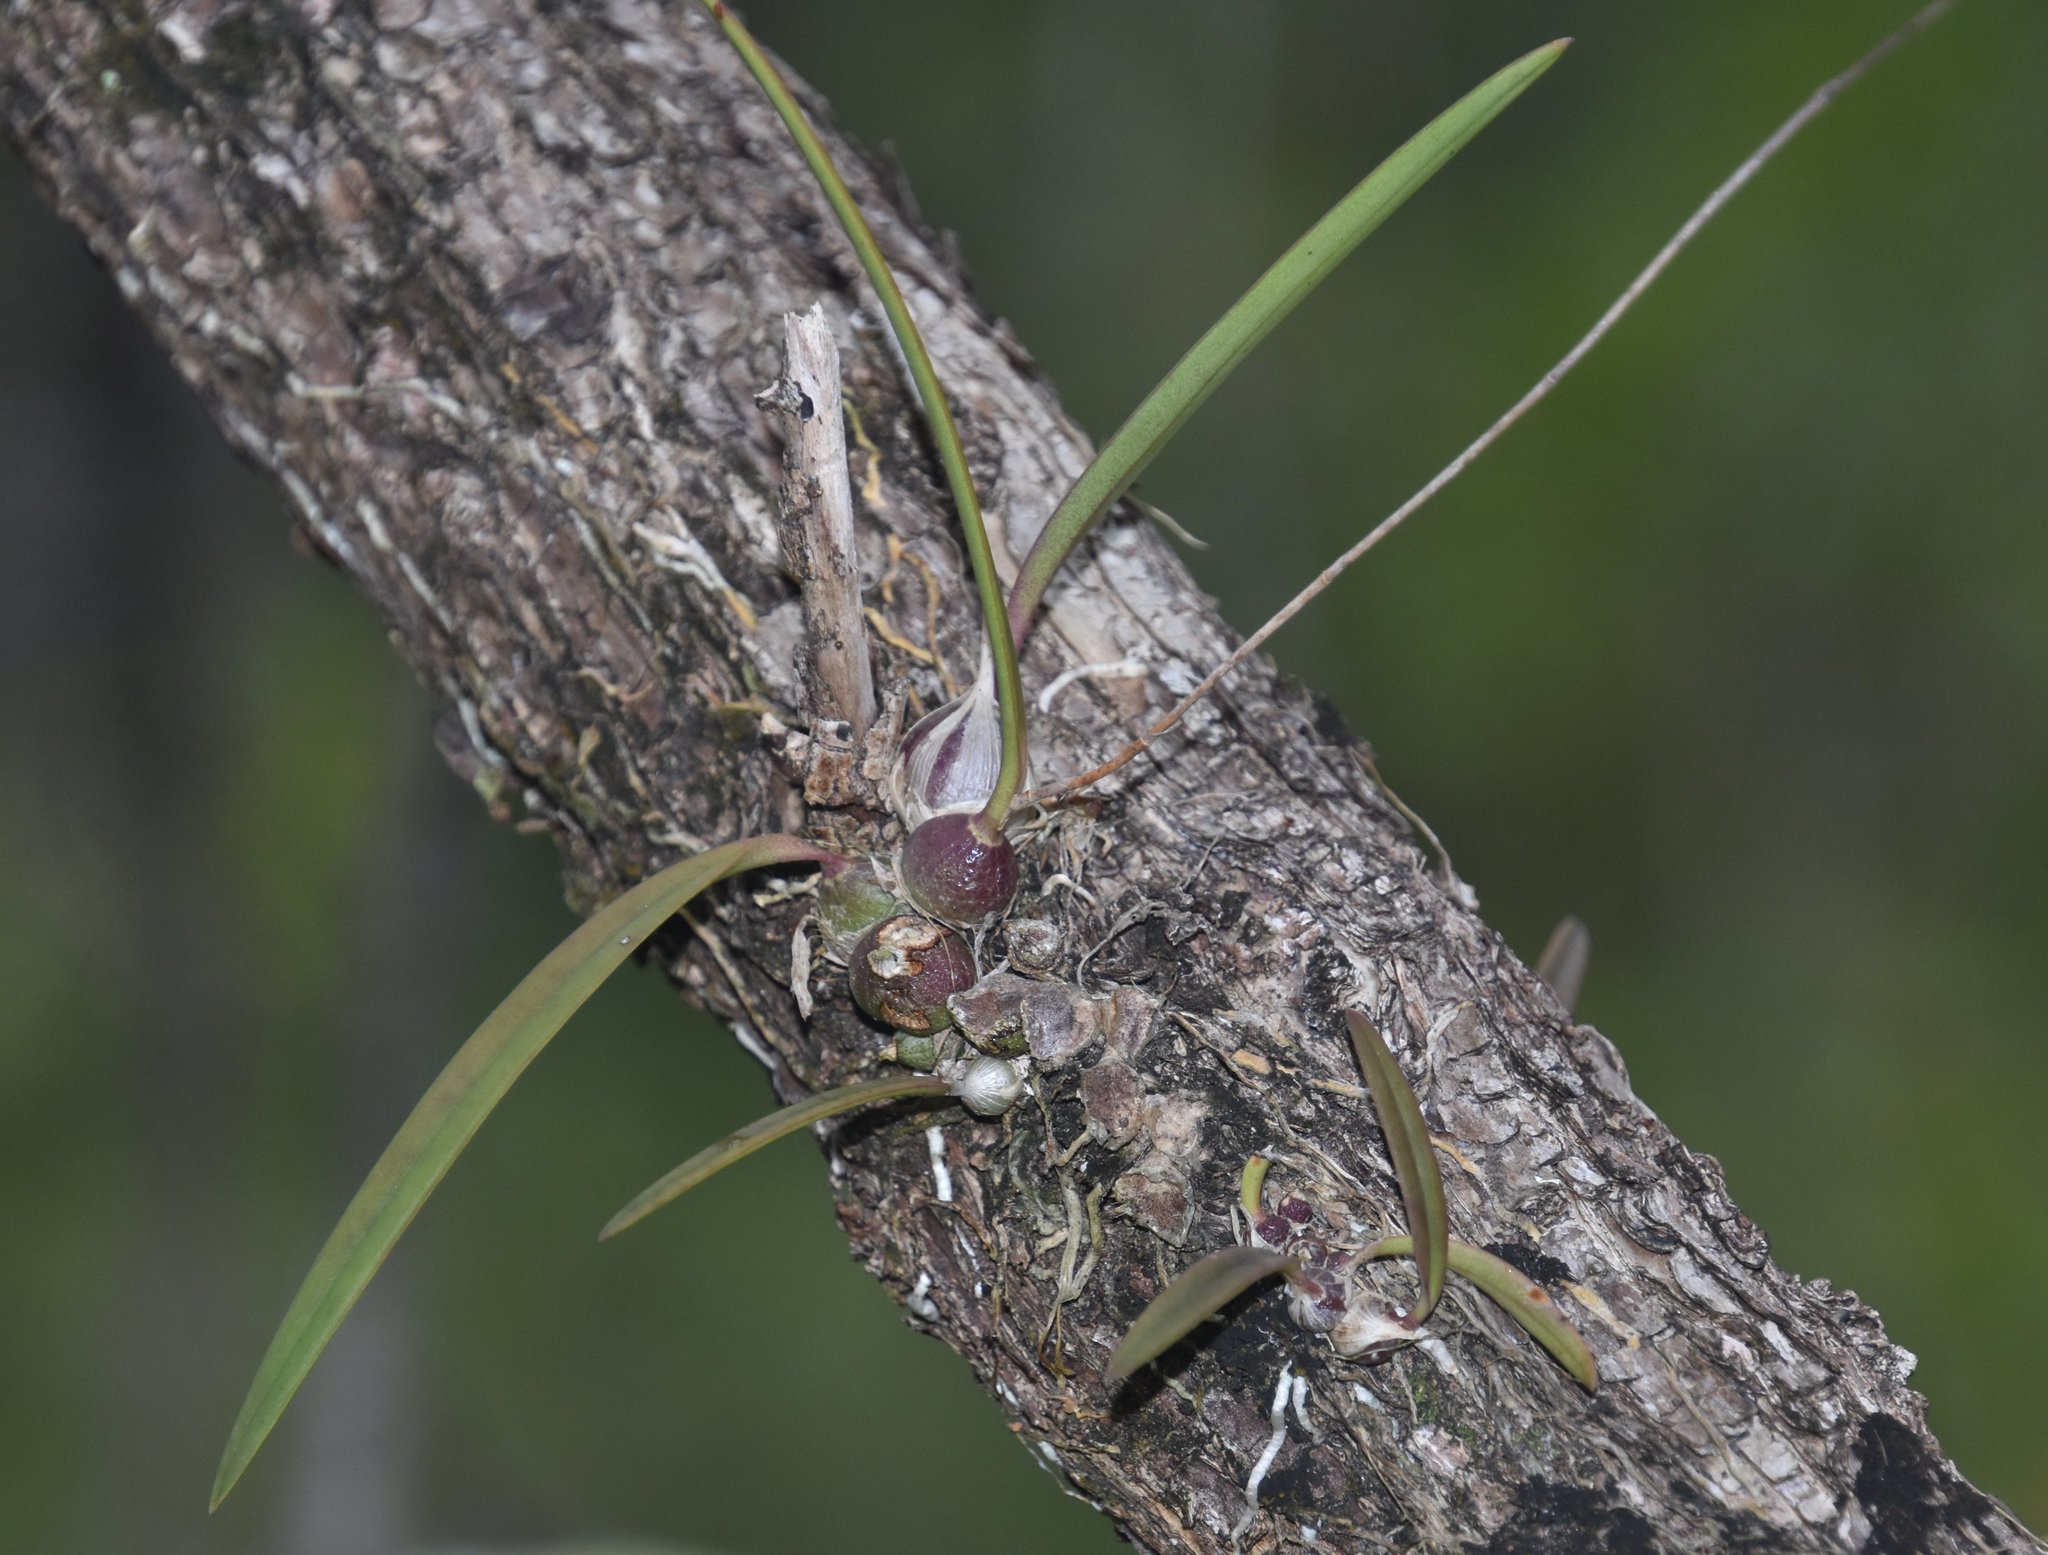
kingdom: Plantae
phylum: Tracheophyta
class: Liliopsida
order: Asparagales
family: Orchidaceae
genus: Encyclia
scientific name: Encyclia tampensis
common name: Florida butterfly orchid
